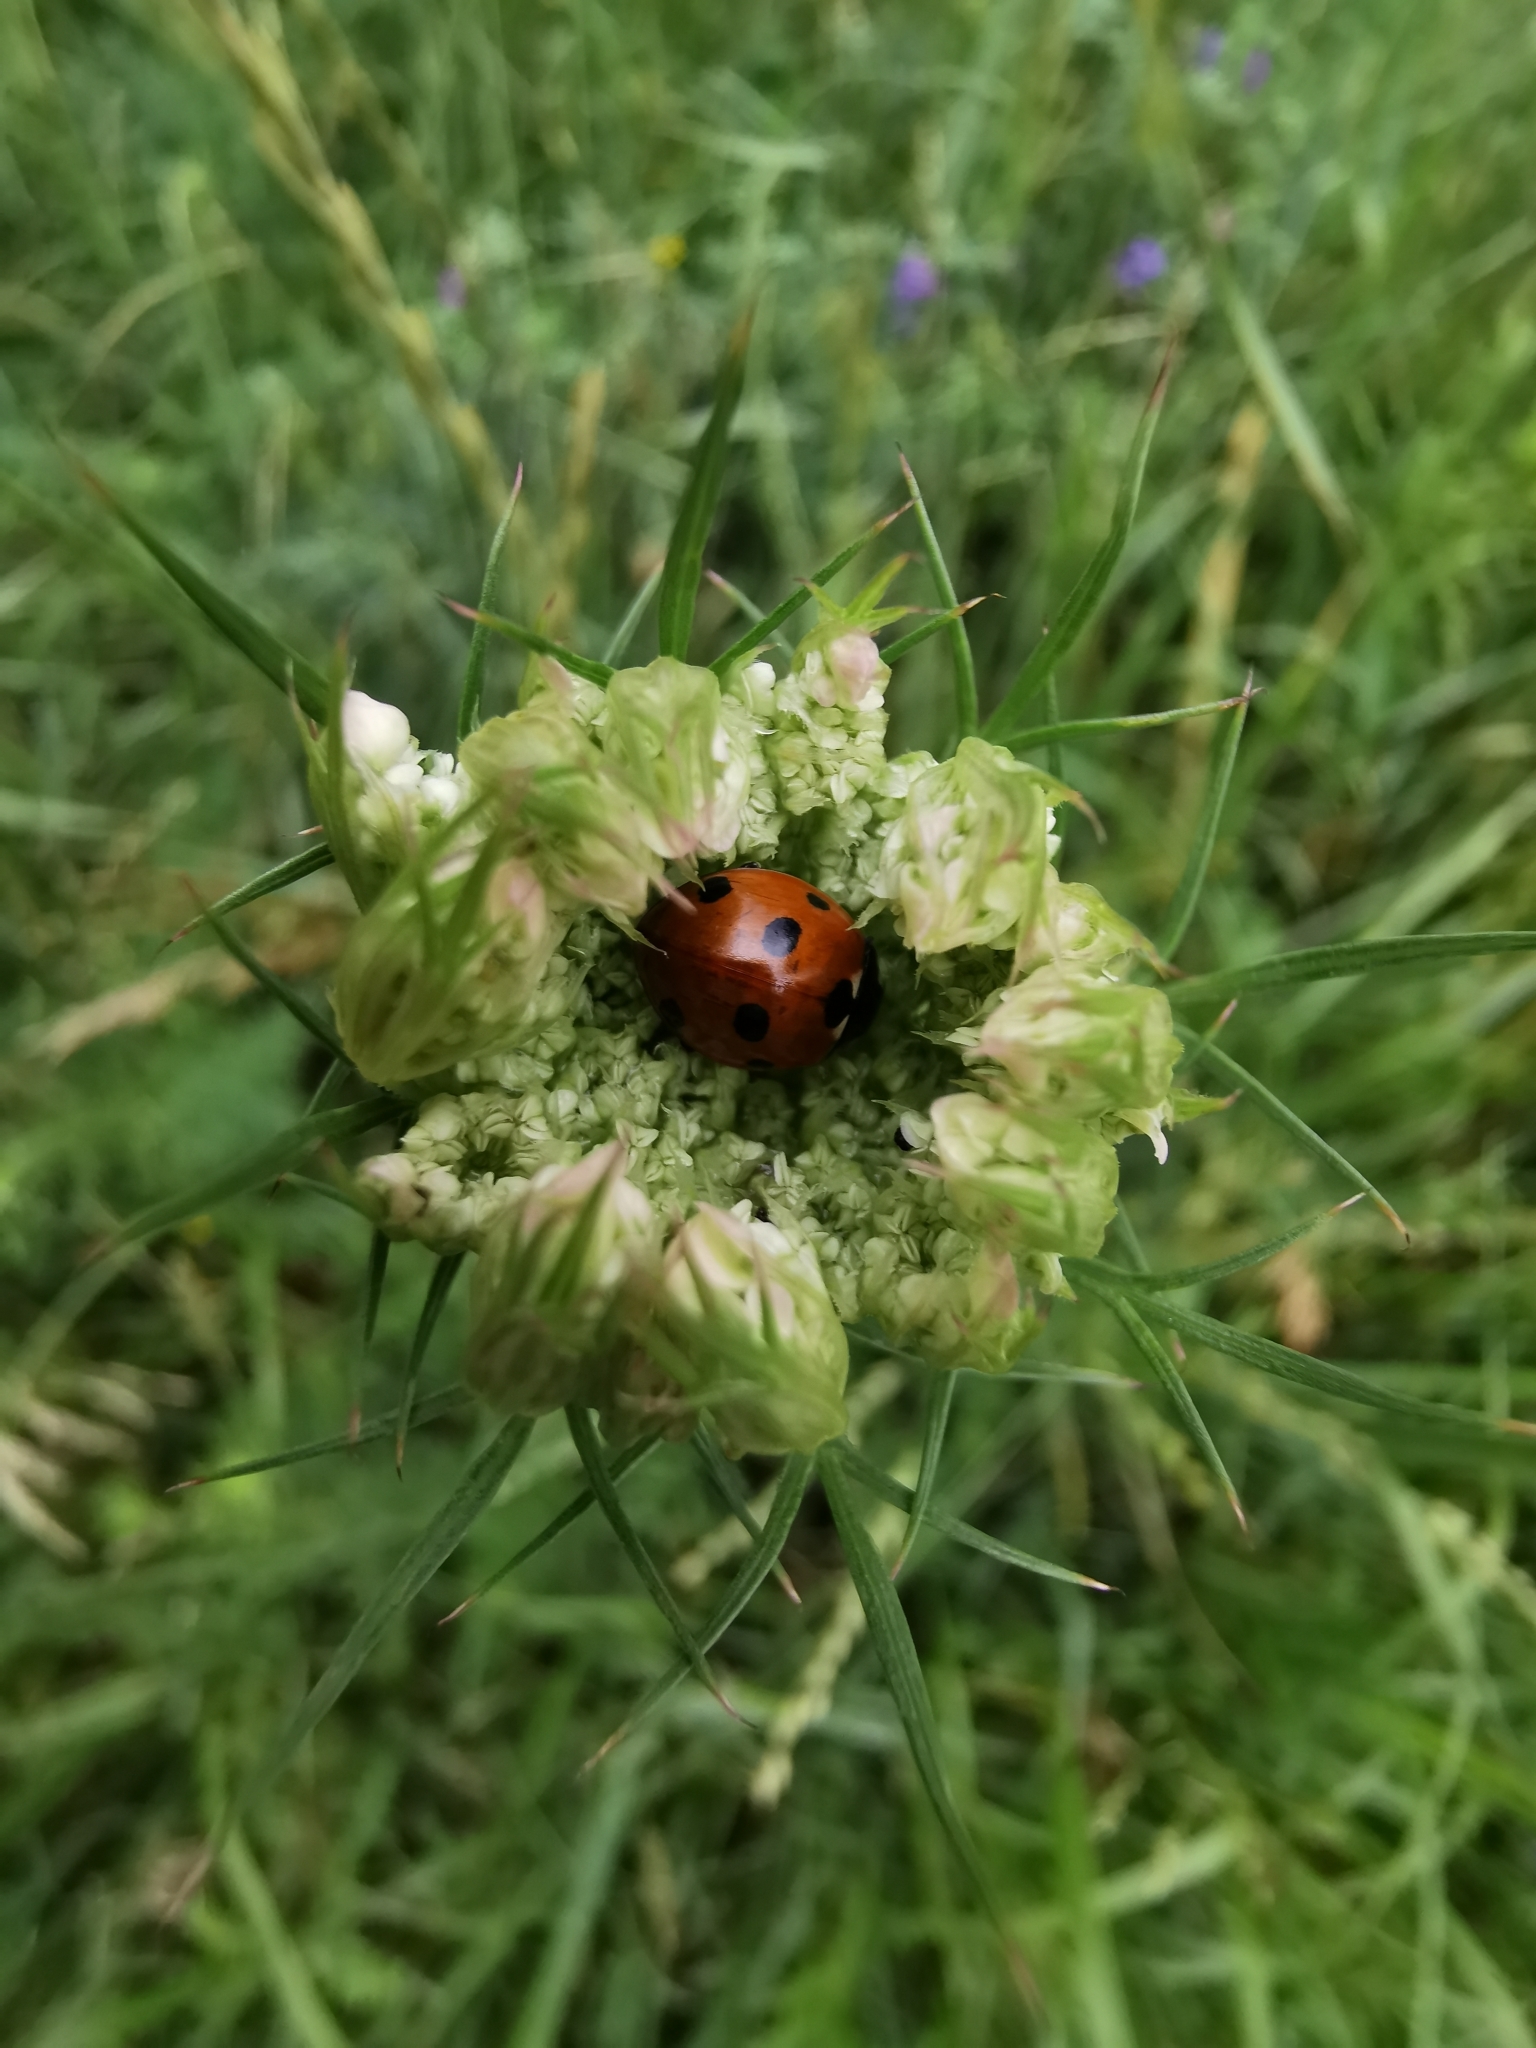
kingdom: Animalia
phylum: Arthropoda
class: Insecta
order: Coleoptera
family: Coccinellidae
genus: Coccinella
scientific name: Coccinella septempunctata
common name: Sevenspotted lady beetle
